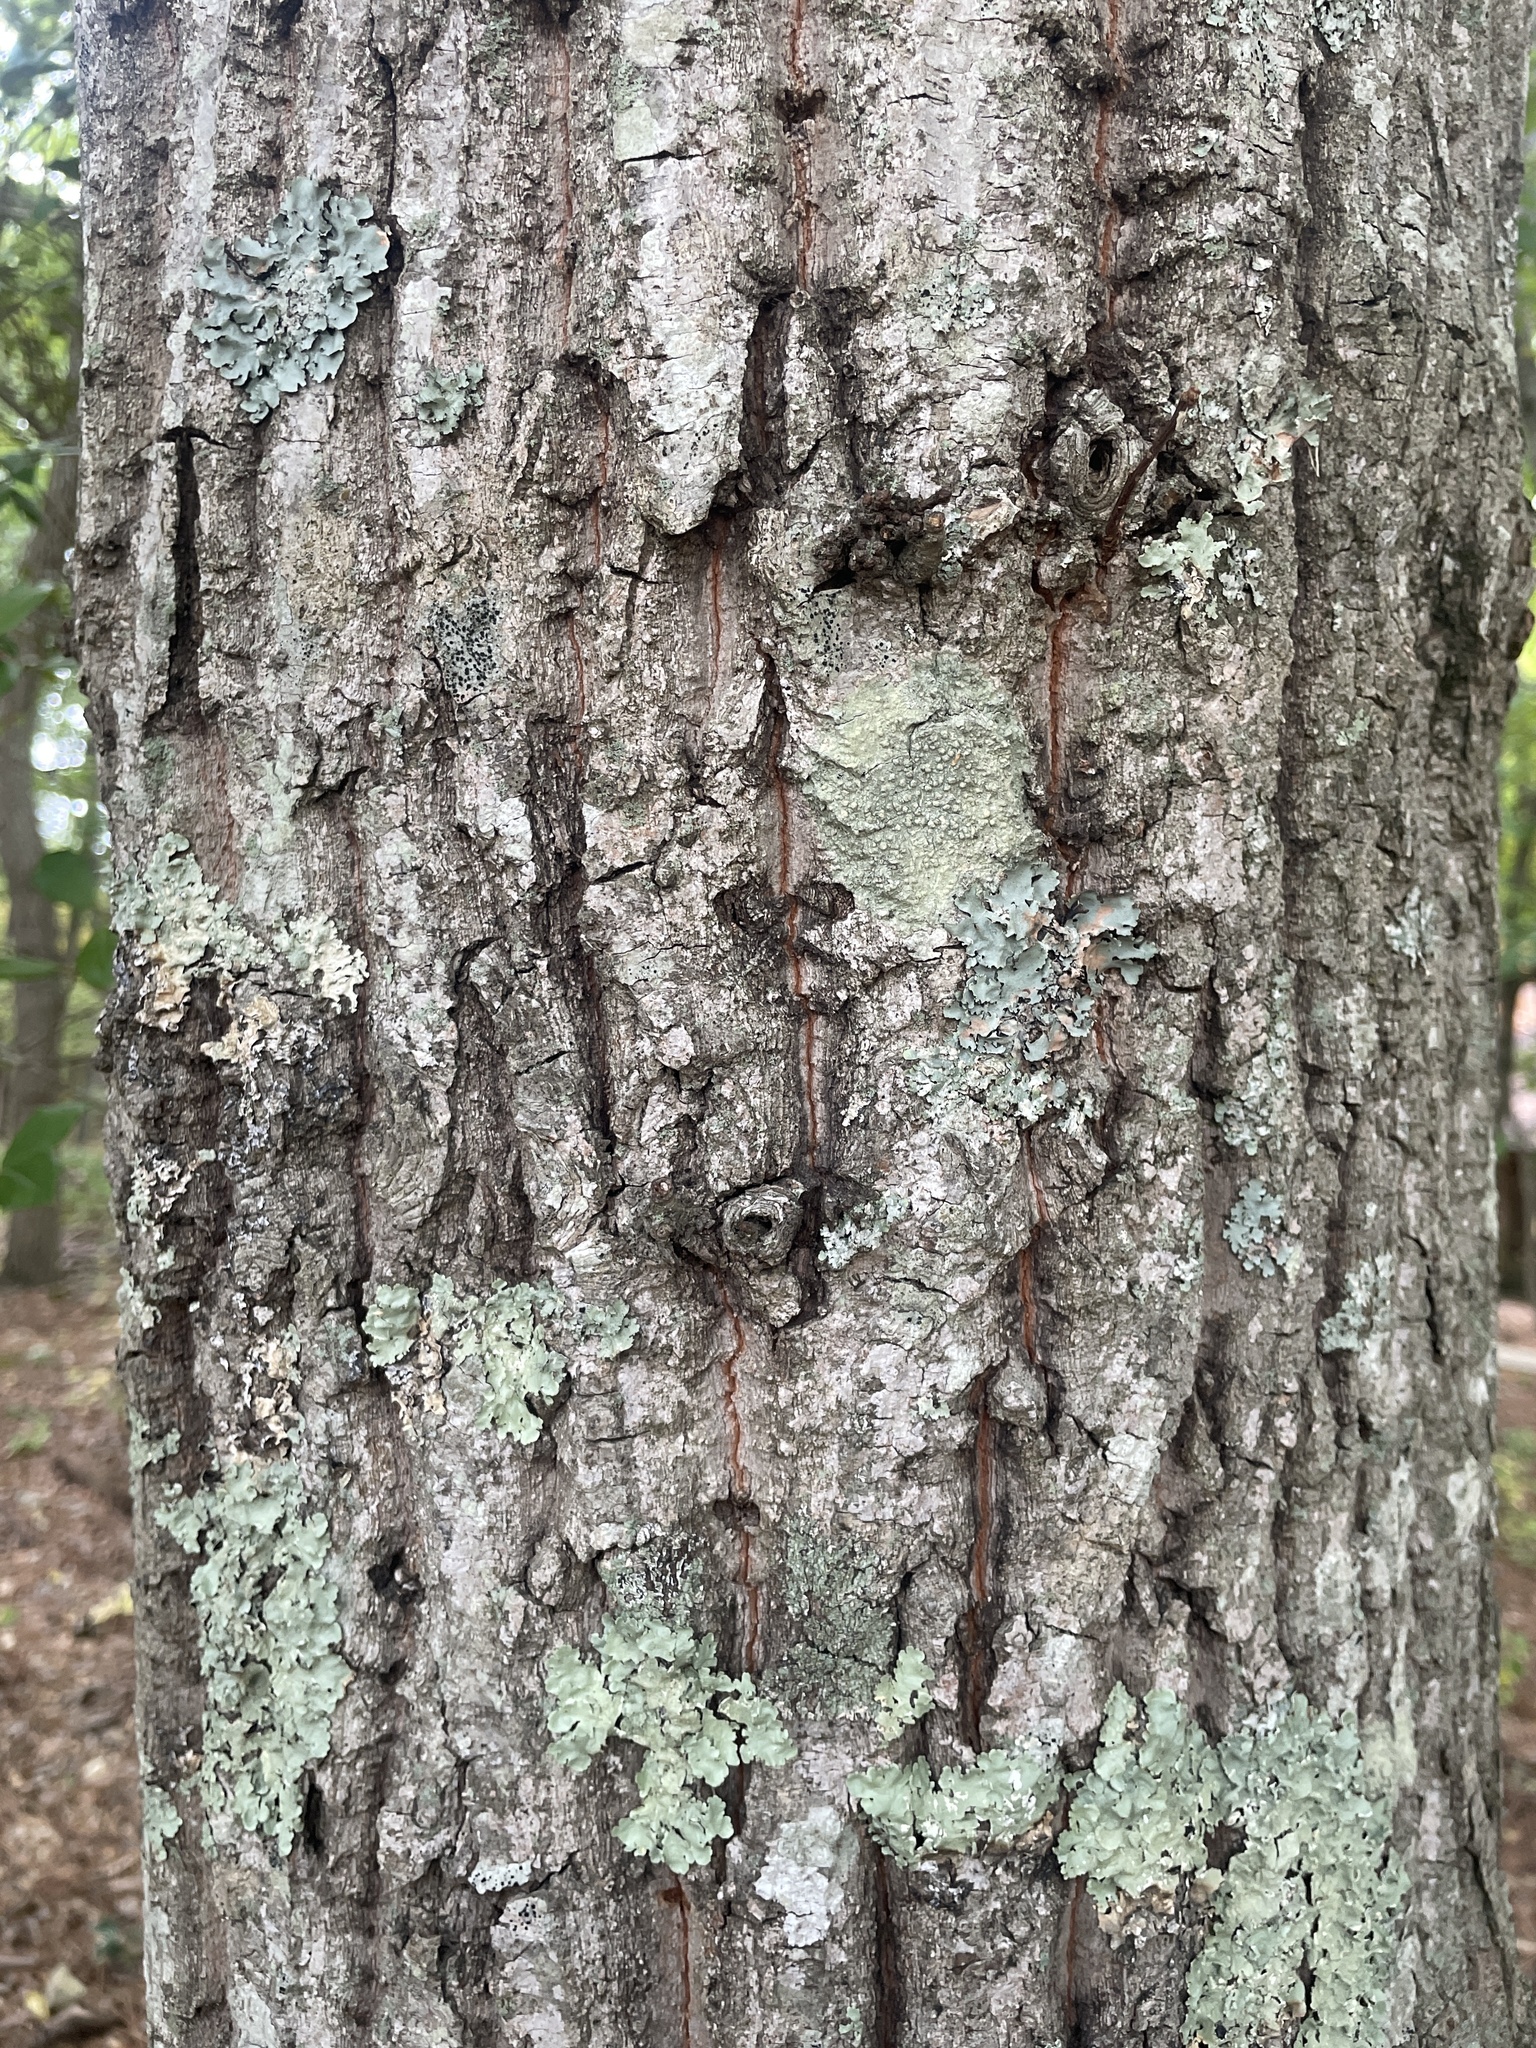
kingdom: Plantae
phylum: Tracheophyta
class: Magnoliopsida
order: Fagales
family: Fagaceae
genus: Quercus
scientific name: Quercus montana
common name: Chestnut oak
